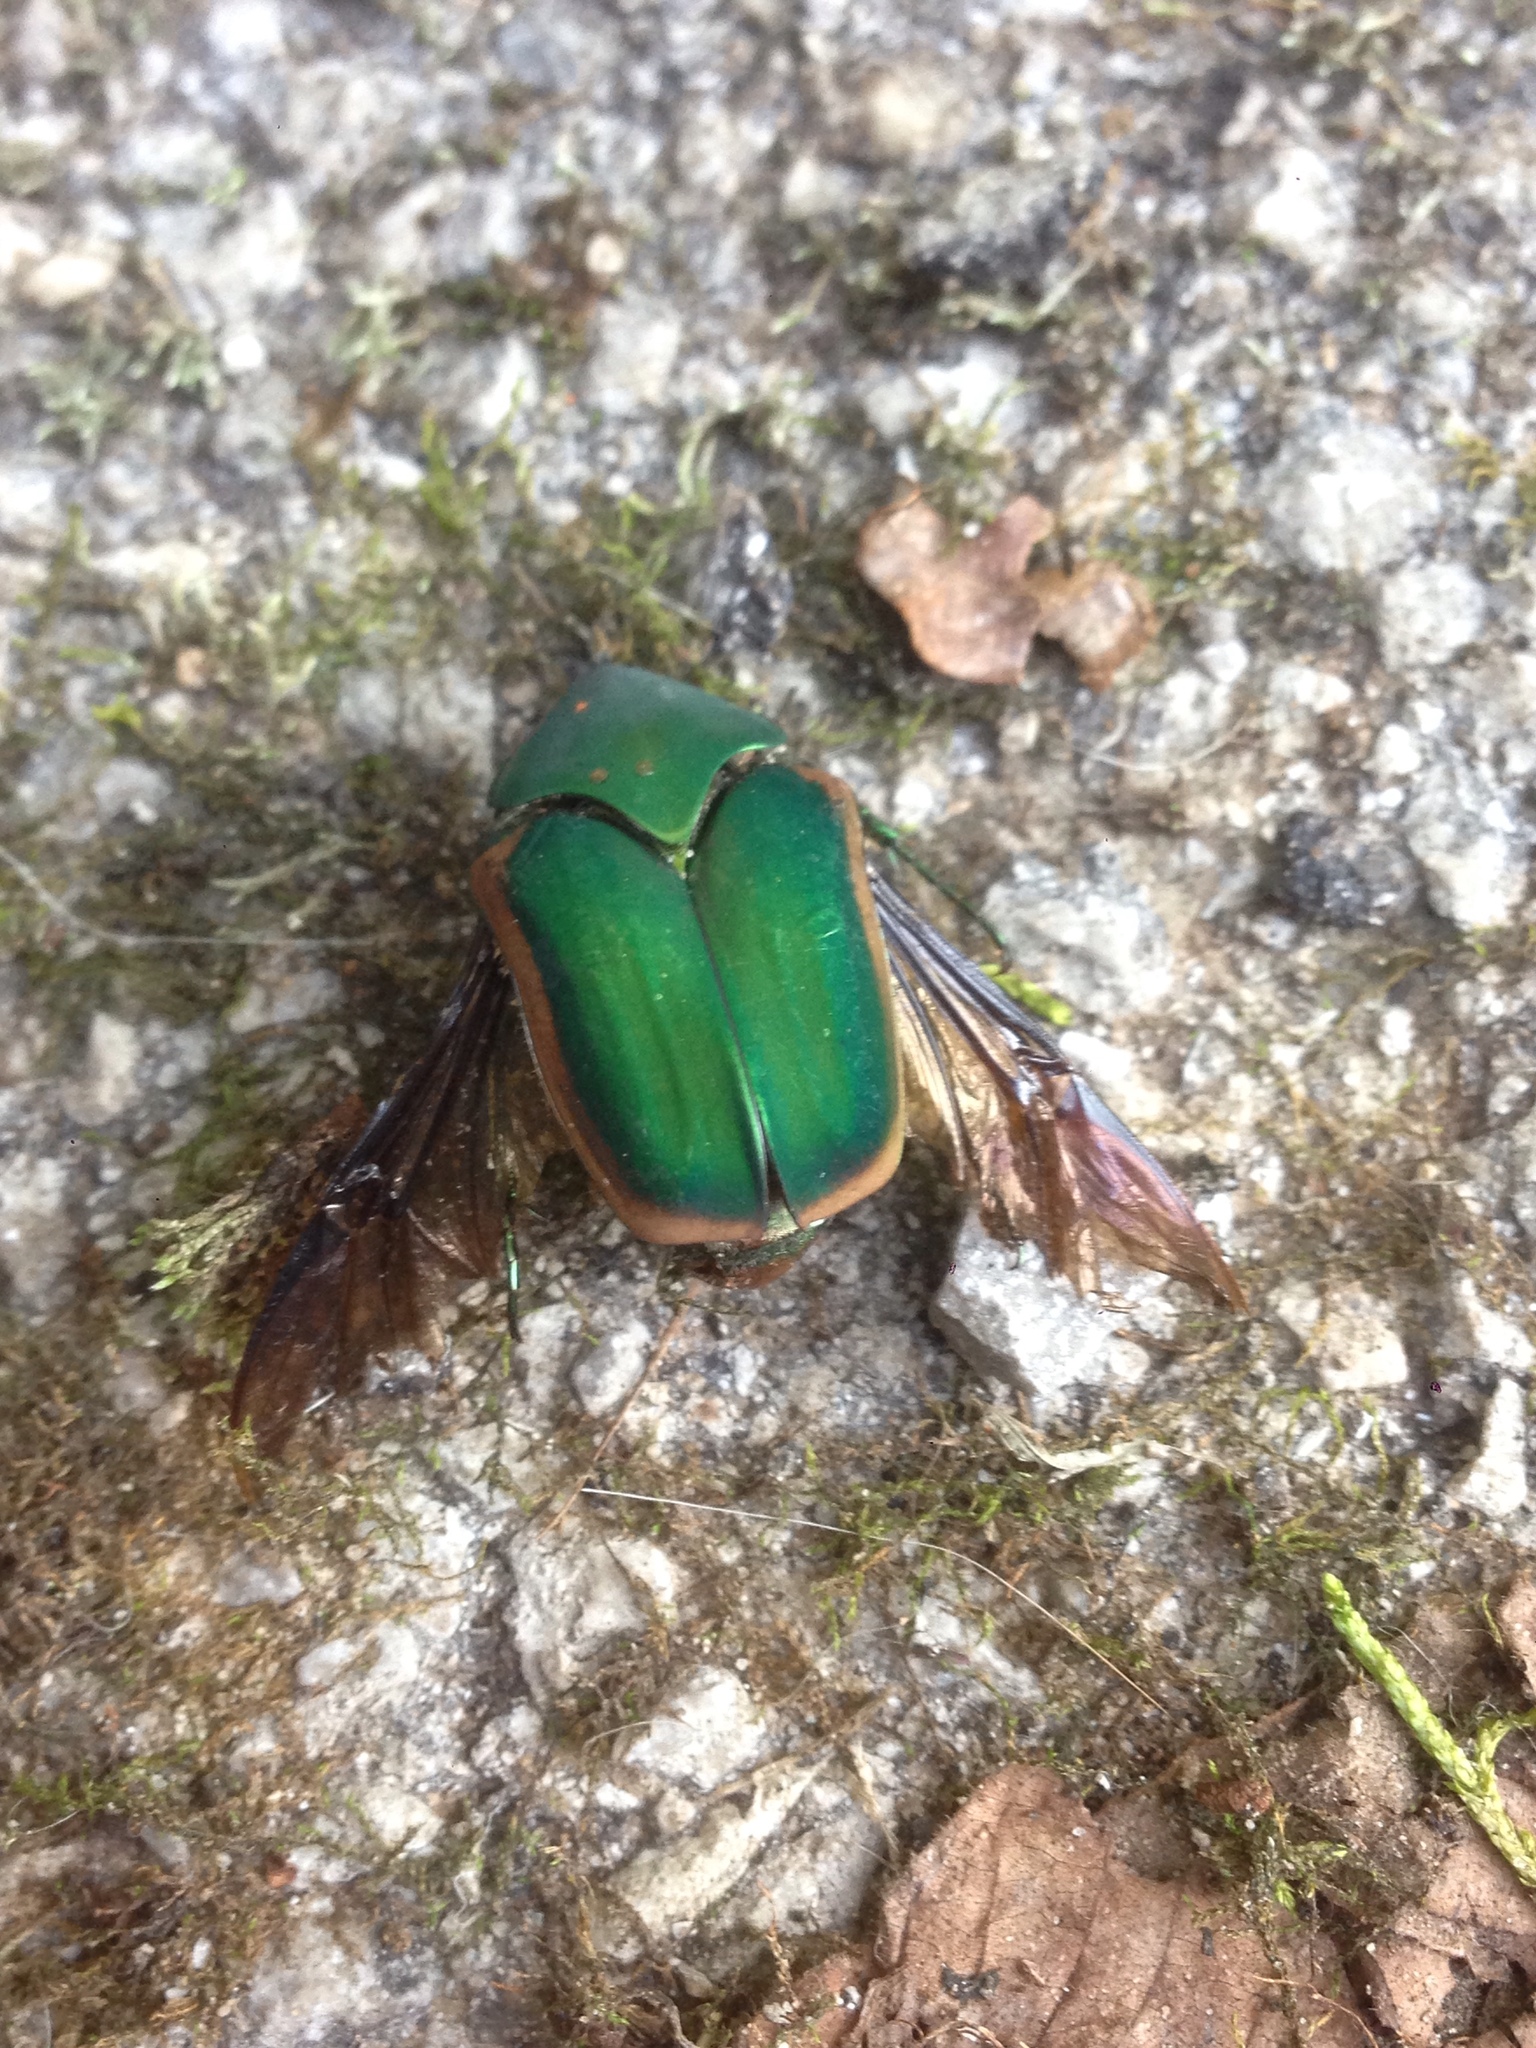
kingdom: Animalia
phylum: Arthropoda
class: Insecta
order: Coleoptera
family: Scarabaeidae
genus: Cotinis
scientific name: Cotinis nitida
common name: Common green june beetle
